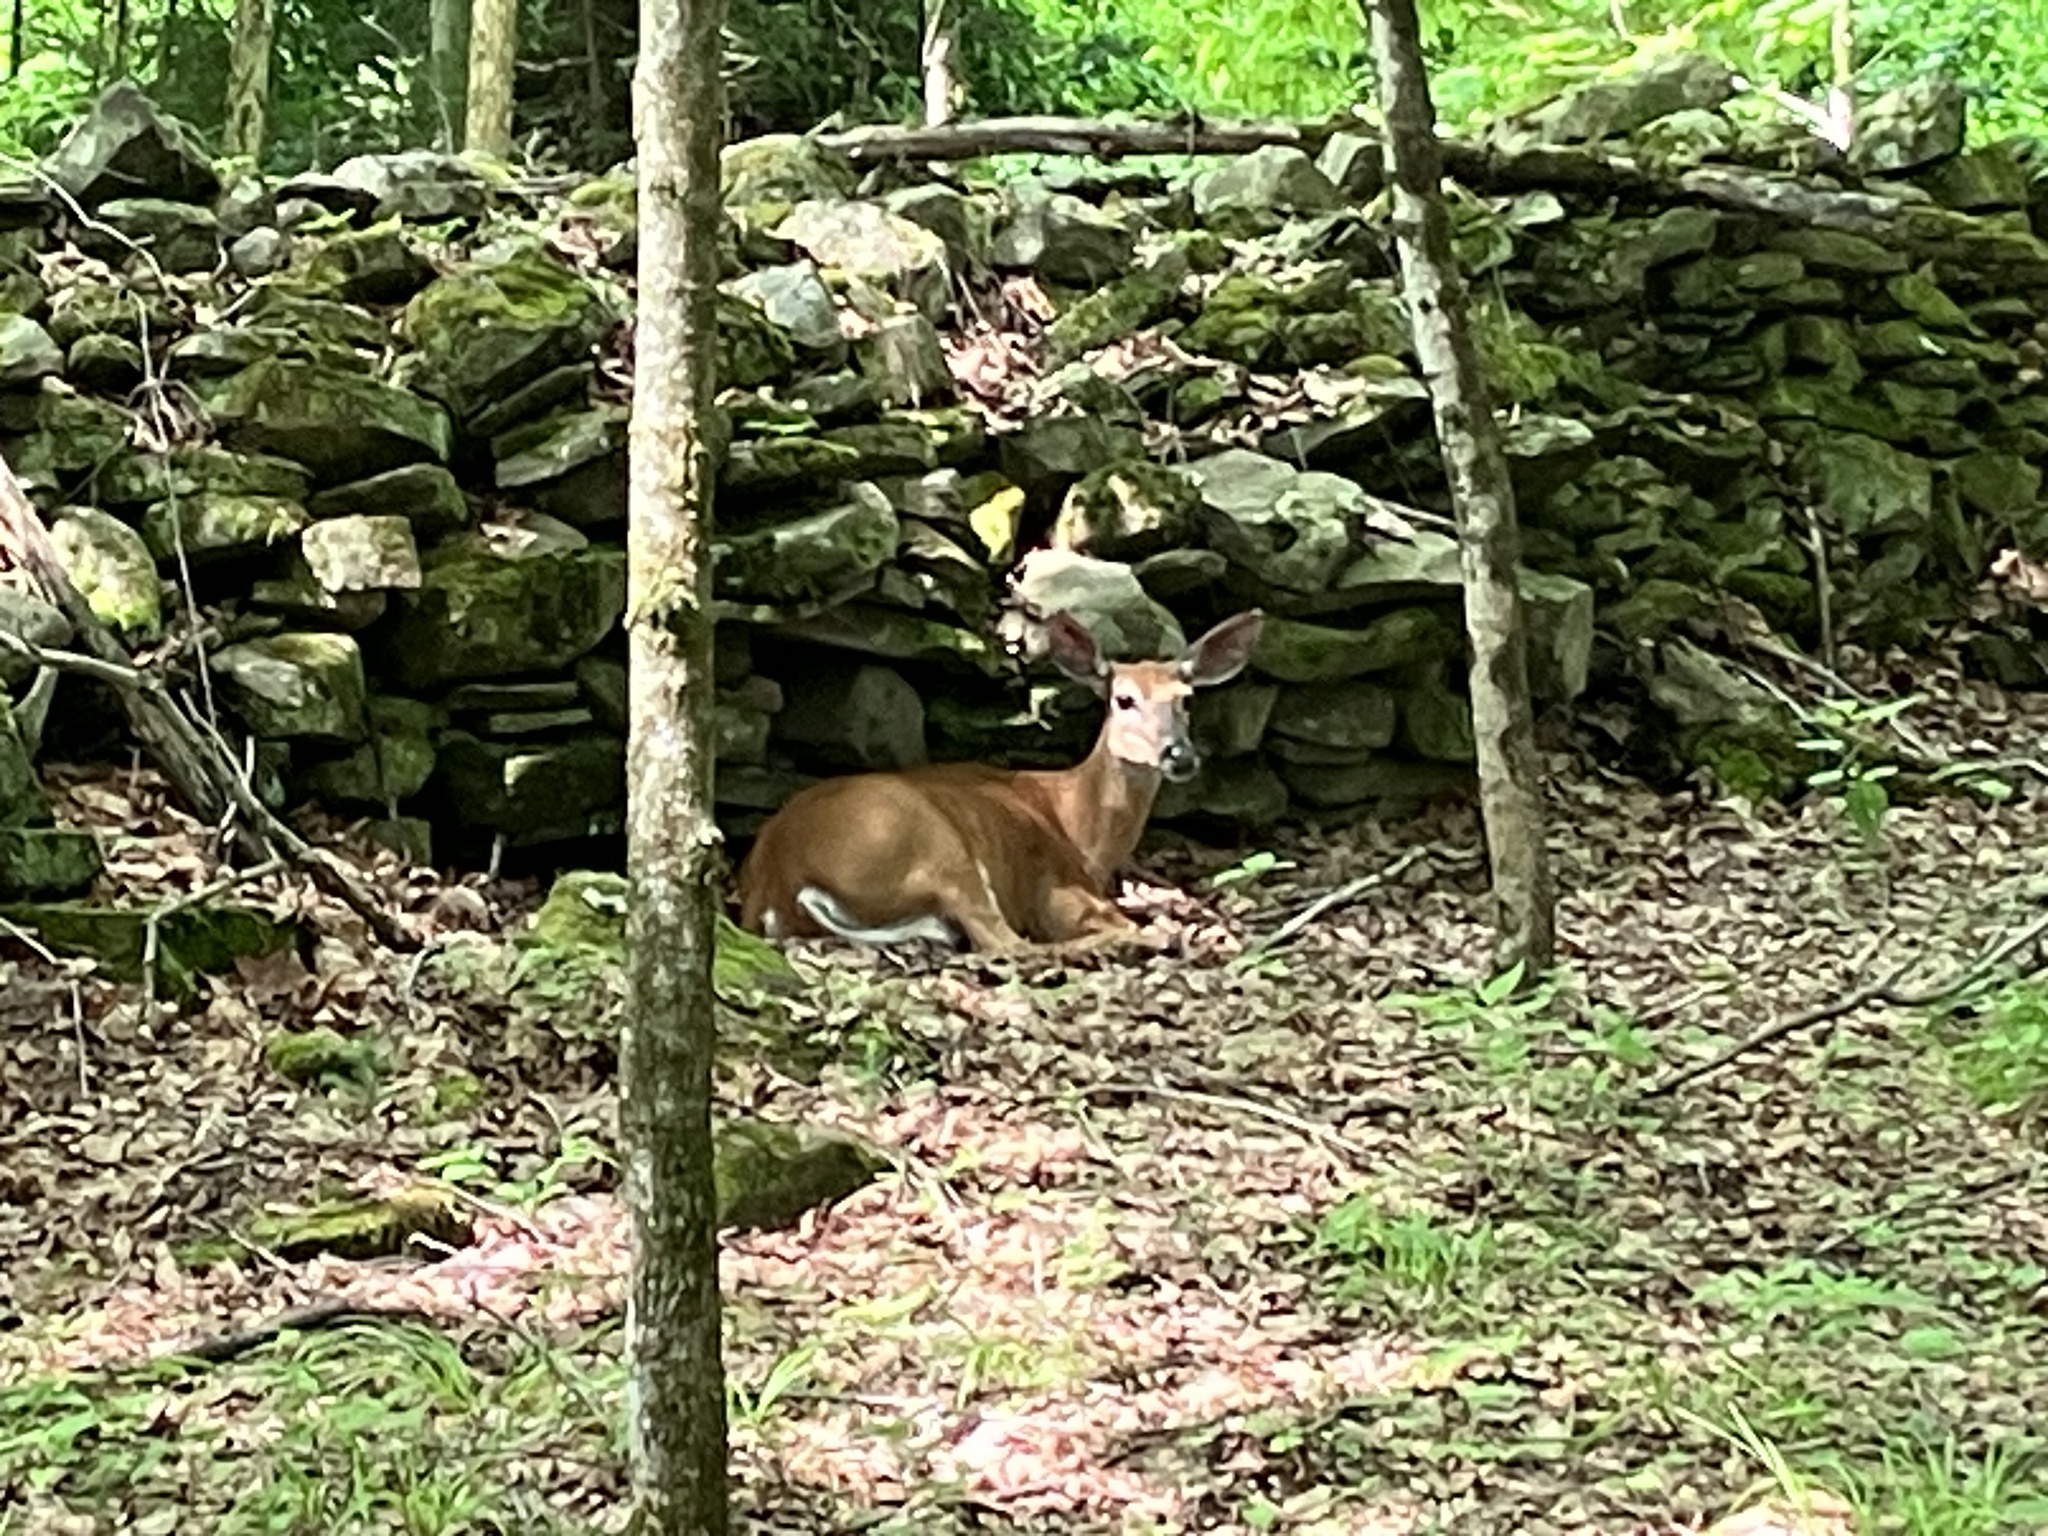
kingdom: Animalia
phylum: Chordata
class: Mammalia
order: Artiodactyla
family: Cervidae
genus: Odocoileus
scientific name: Odocoileus virginianus
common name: White-tailed deer
